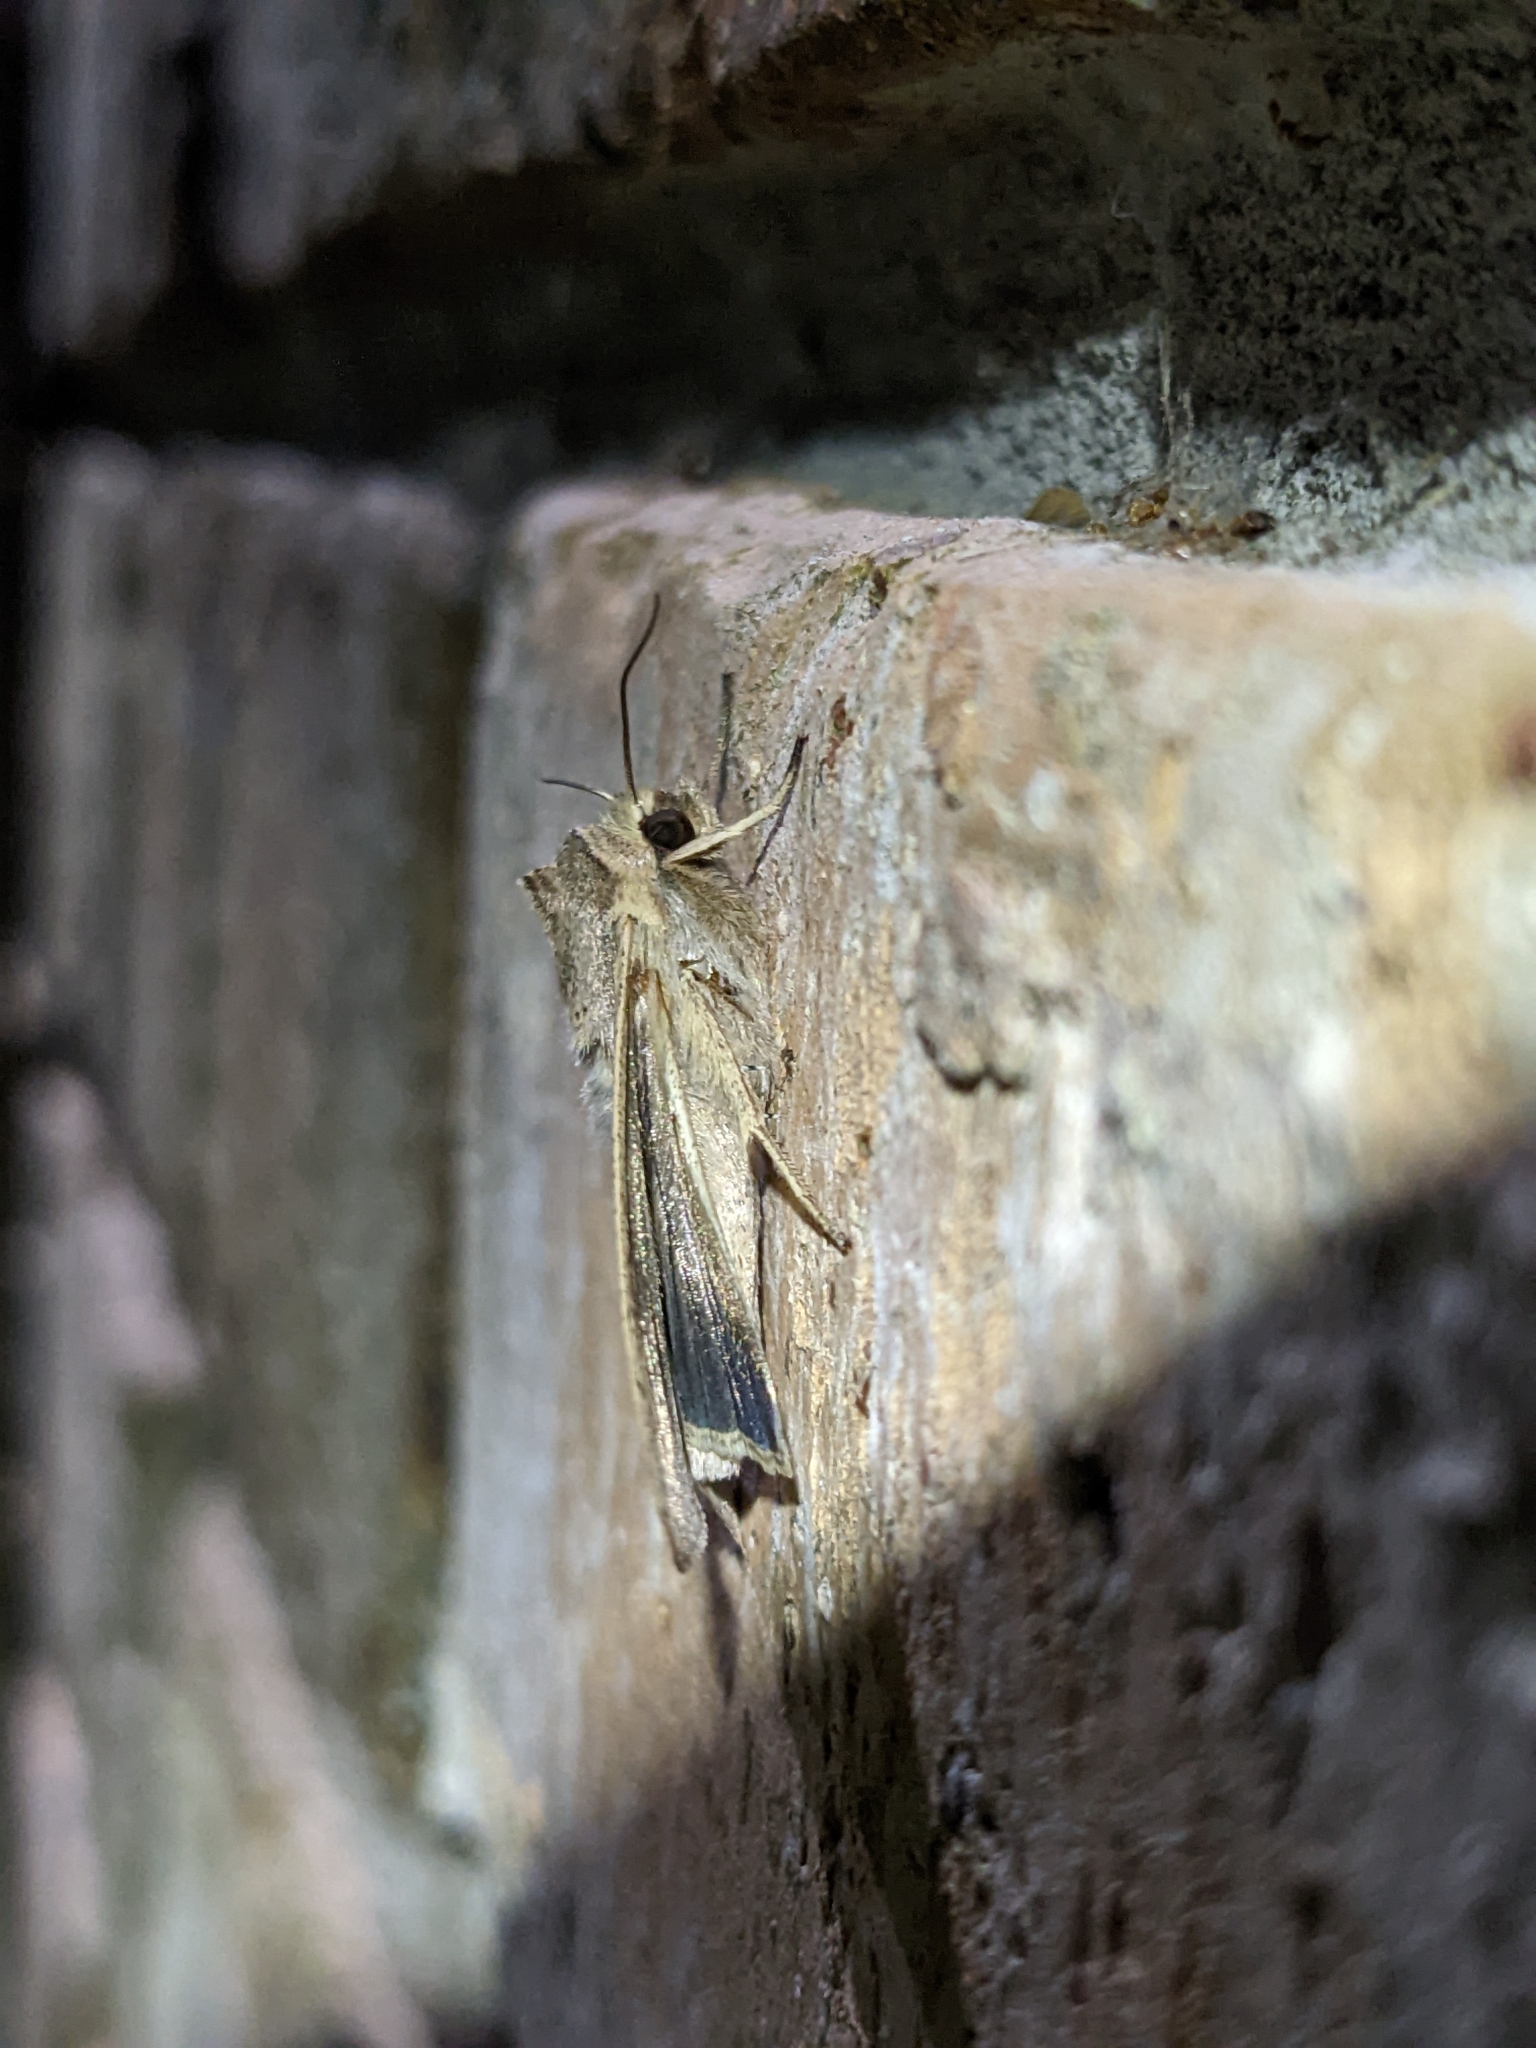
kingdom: Animalia
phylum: Arthropoda
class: Insecta
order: Lepidoptera
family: Noctuidae
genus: Mythimna
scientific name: Mythimna unipuncta
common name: White-speck
